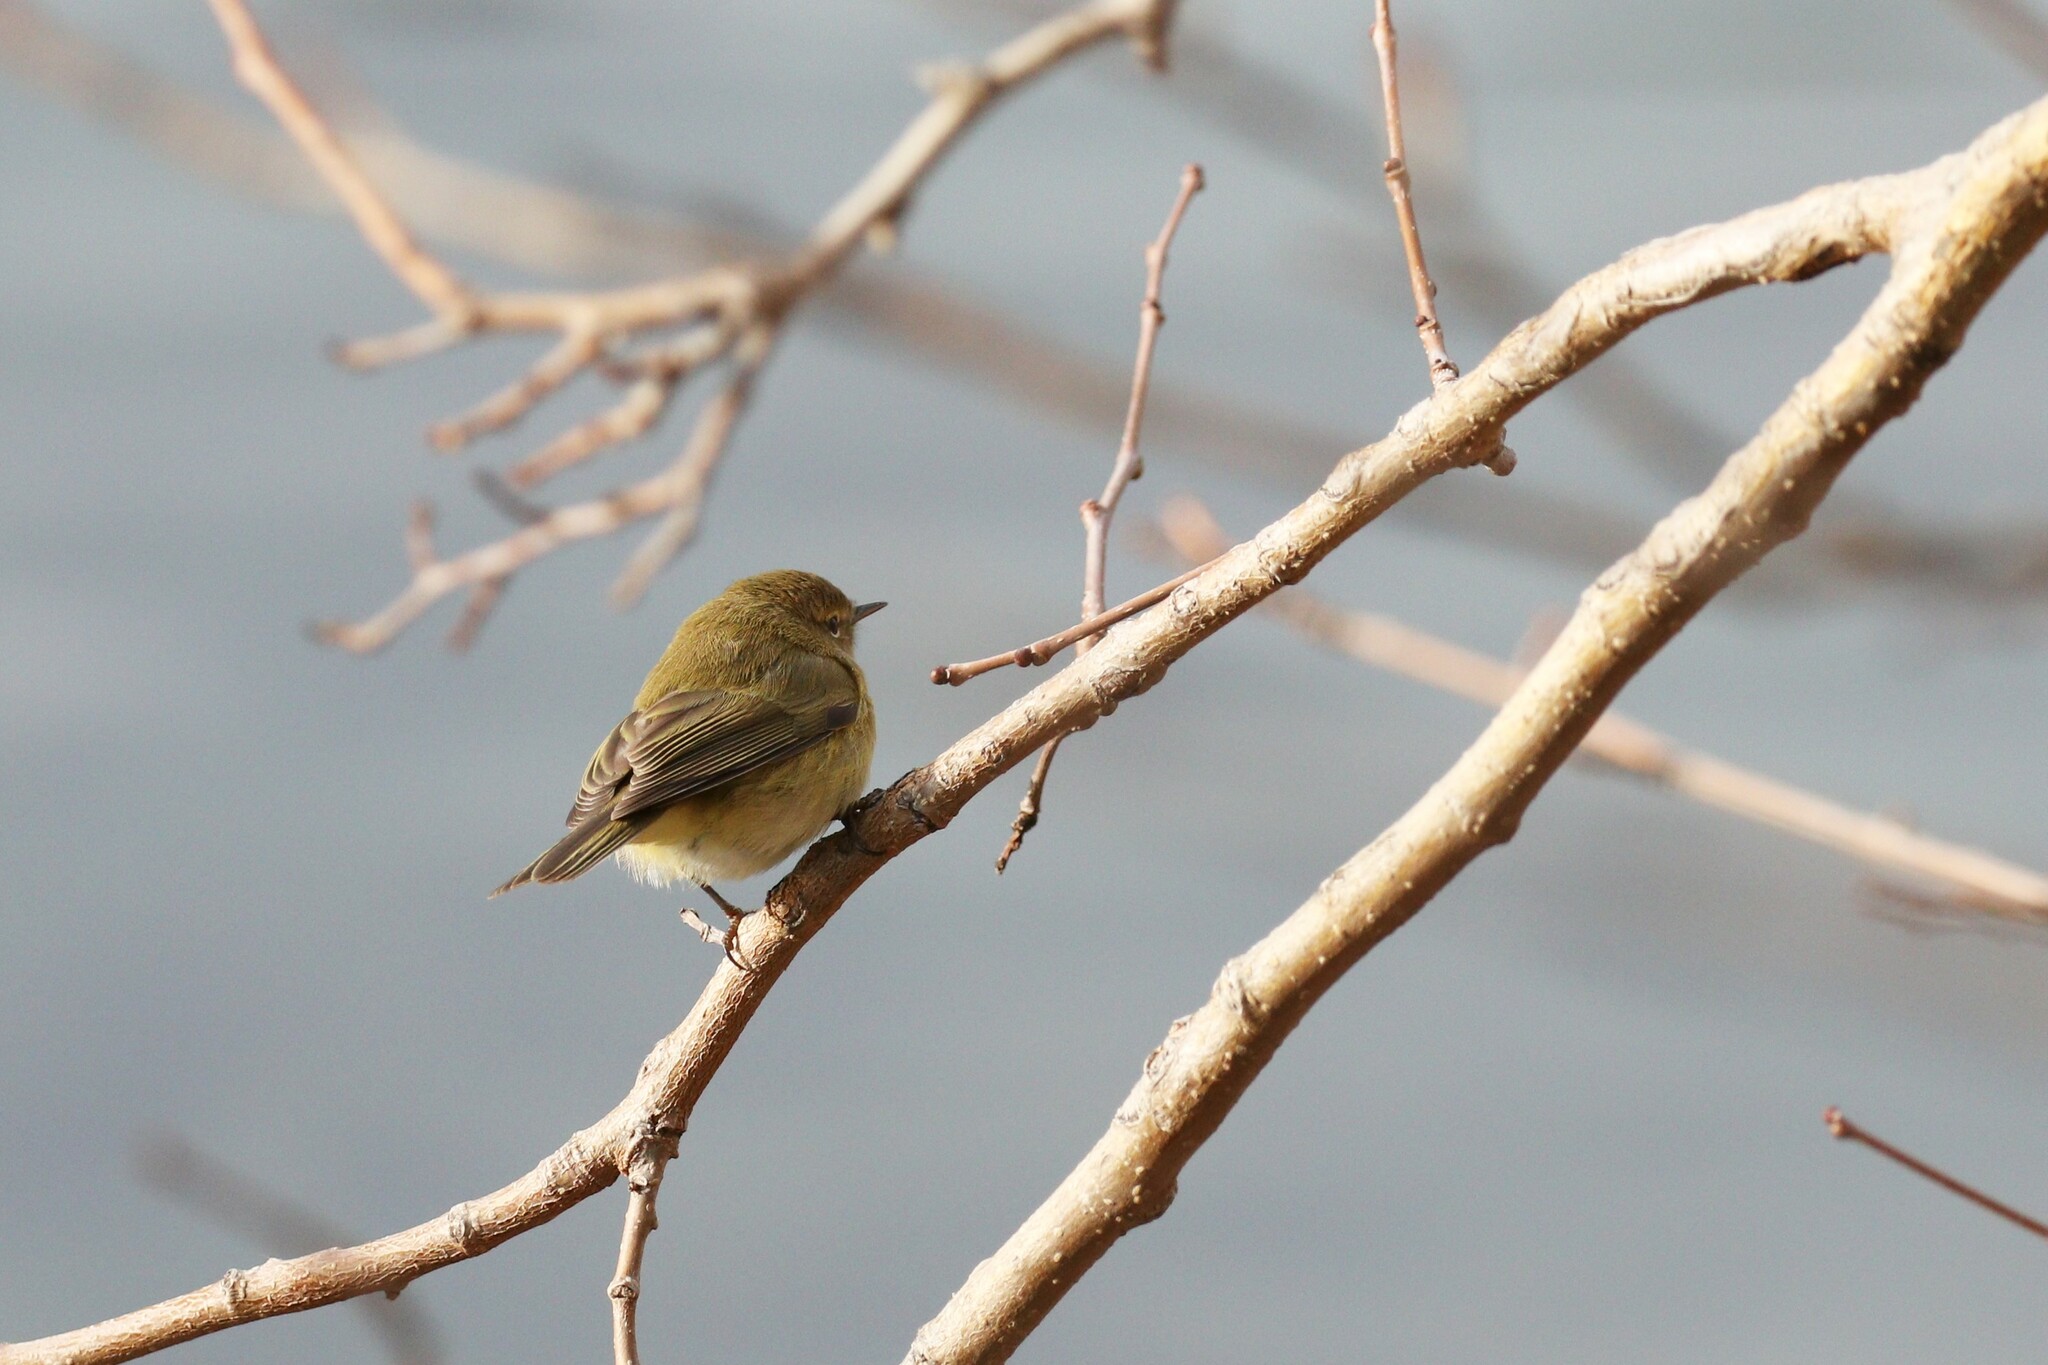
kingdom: Animalia
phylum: Chordata
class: Aves
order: Passeriformes
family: Phylloscopidae
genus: Phylloscopus
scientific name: Phylloscopus collybita
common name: Common chiffchaff
